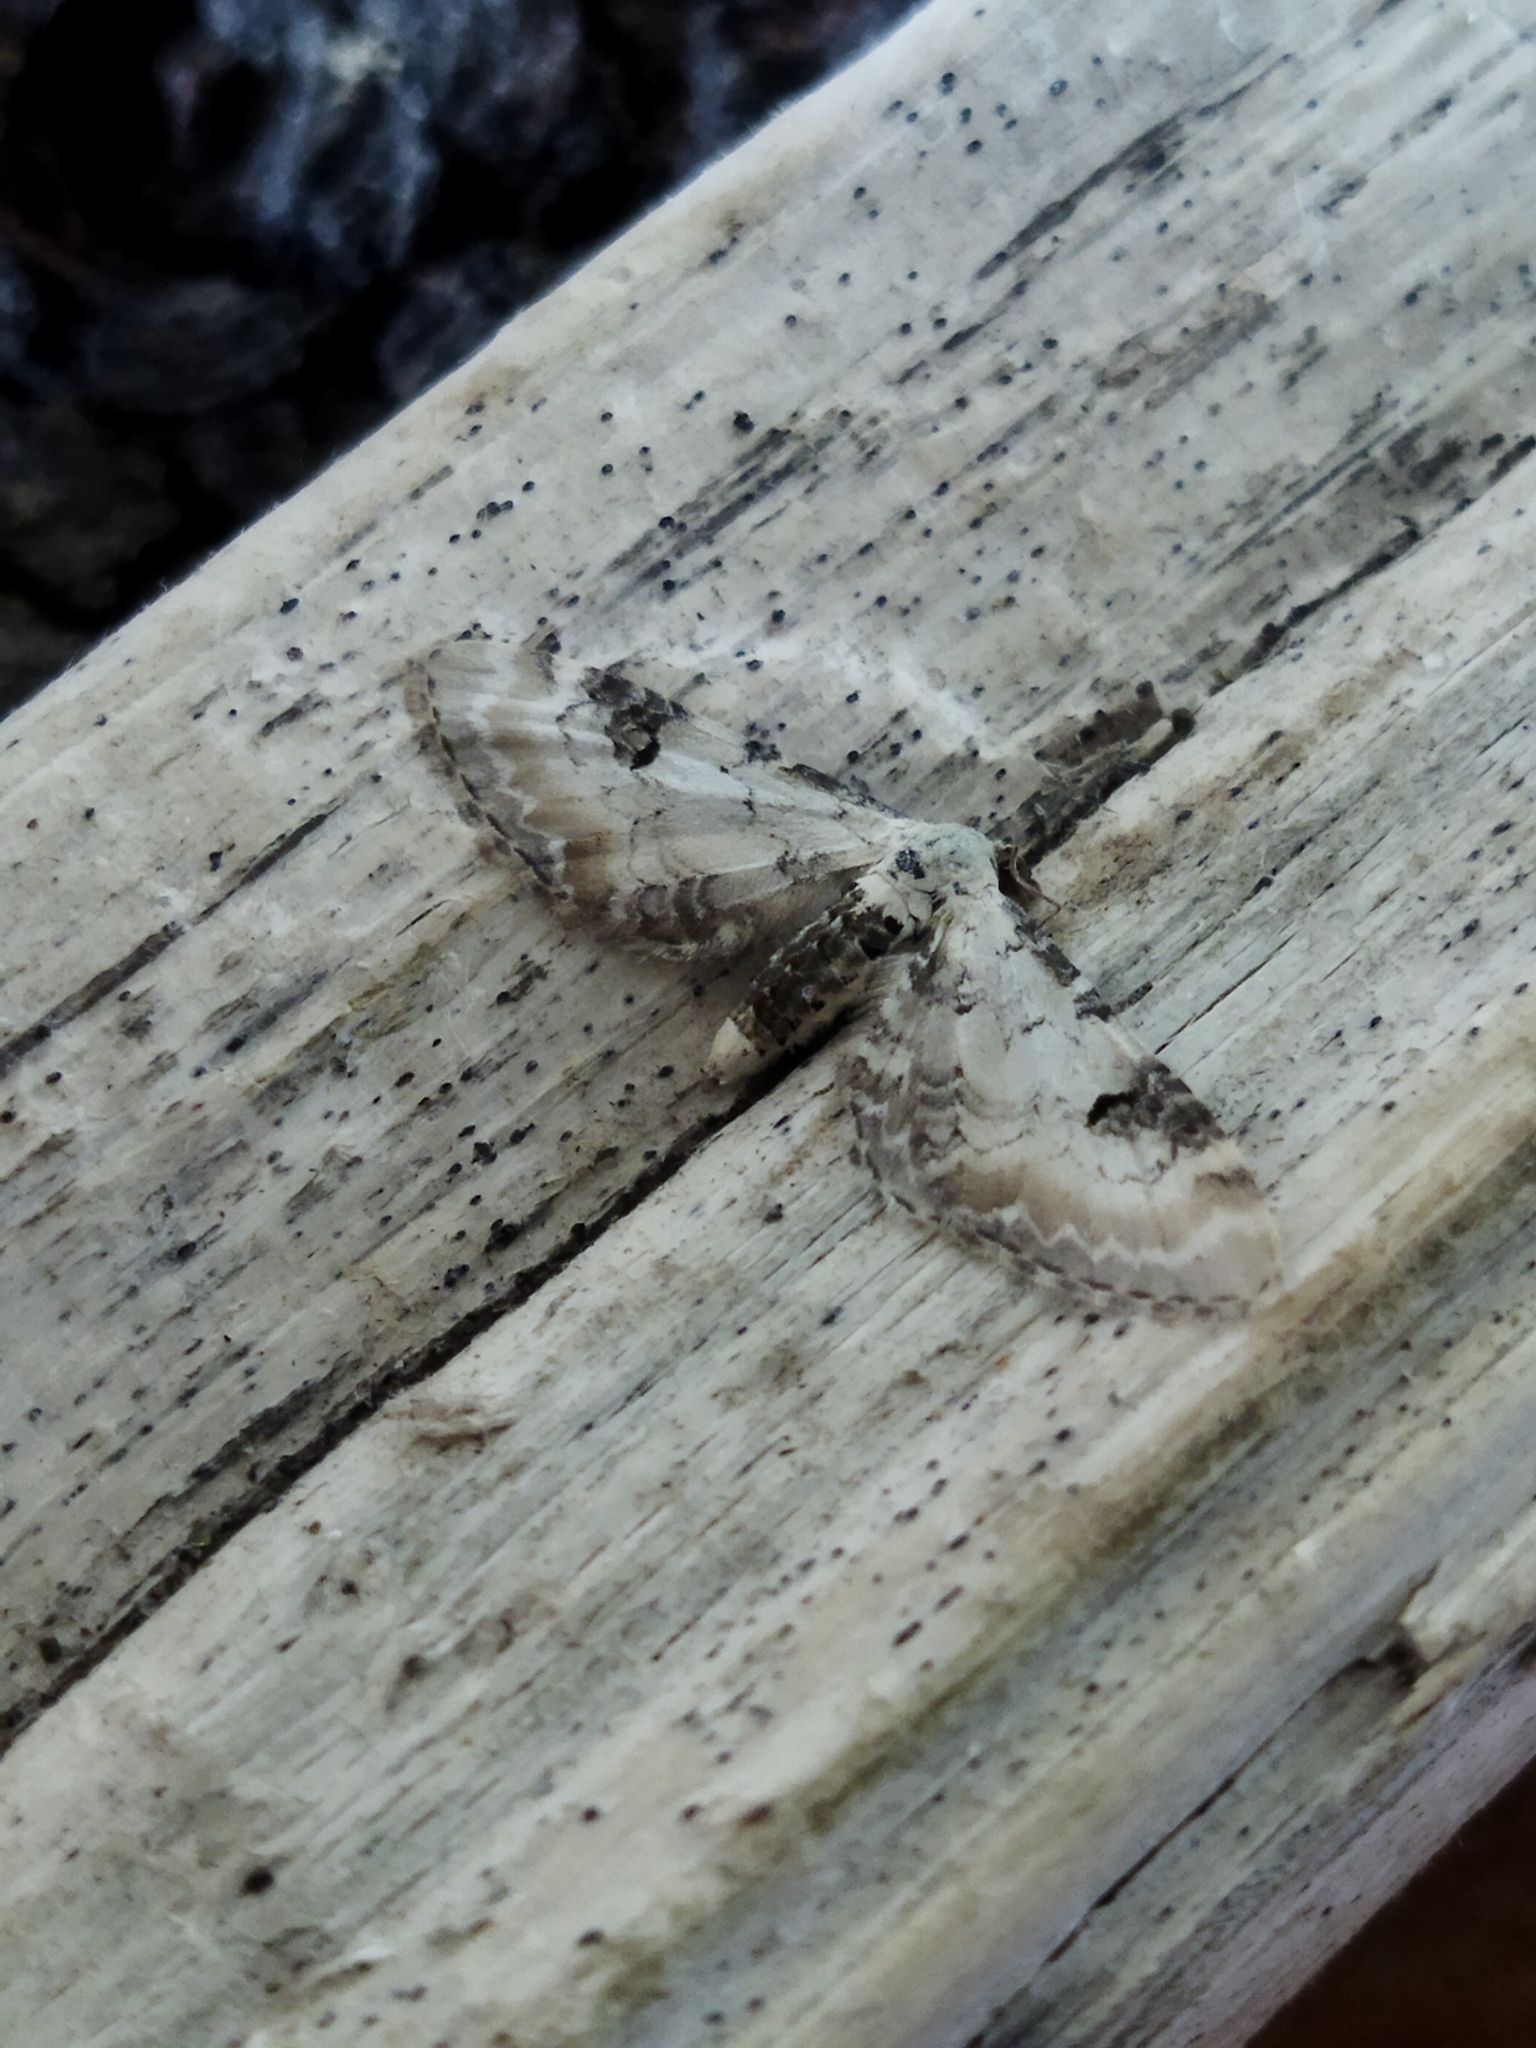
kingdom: Animalia
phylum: Arthropoda
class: Insecta
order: Lepidoptera
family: Geometridae
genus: Eupithecia
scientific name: Eupithecia centaureata
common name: Lime-speck pug
